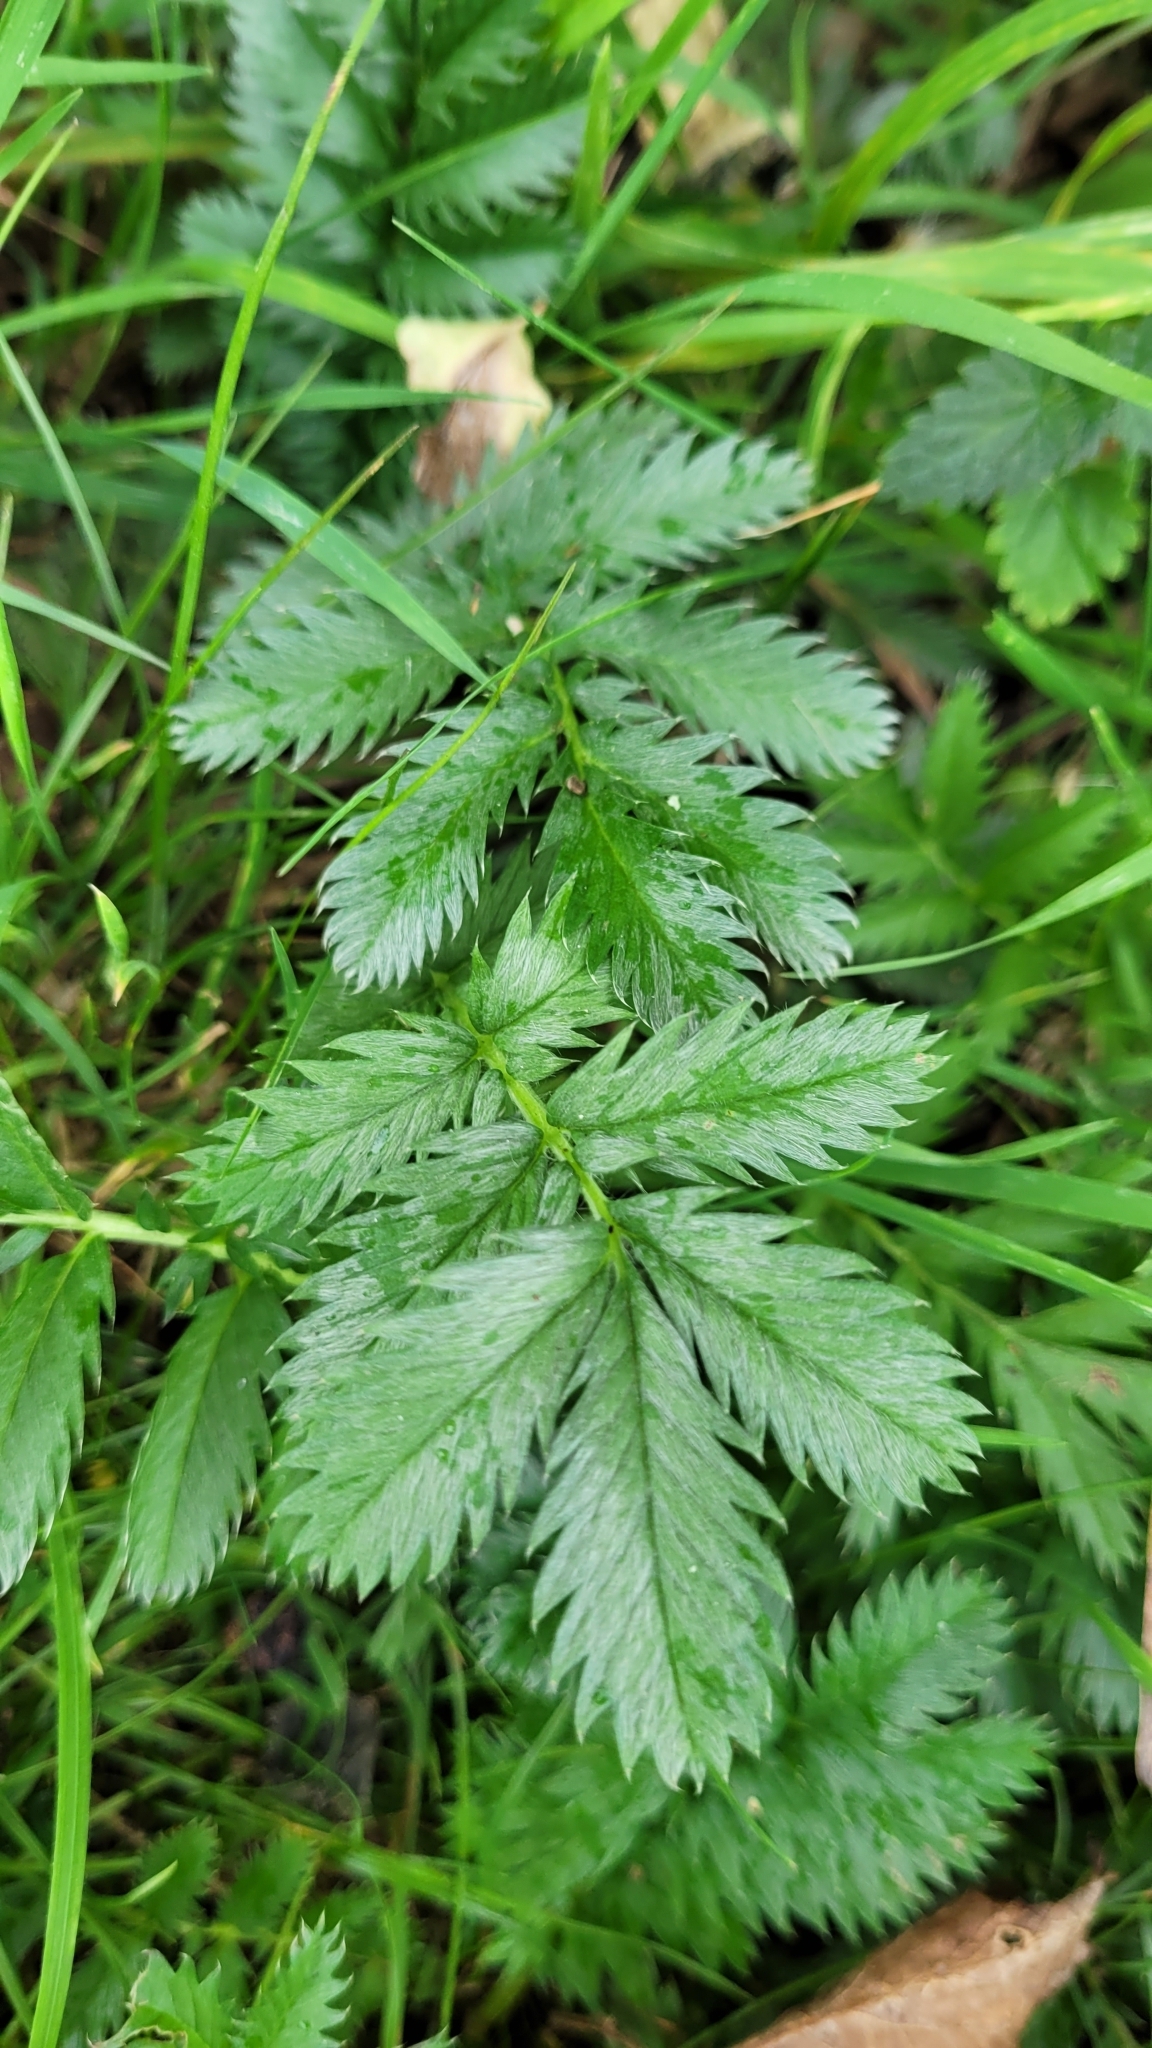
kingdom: Plantae
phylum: Tracheophyta
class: Magnoliopsida
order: Rosales
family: Rosaceae
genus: Argentina
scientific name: Argentina anserina
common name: Common silverweed
